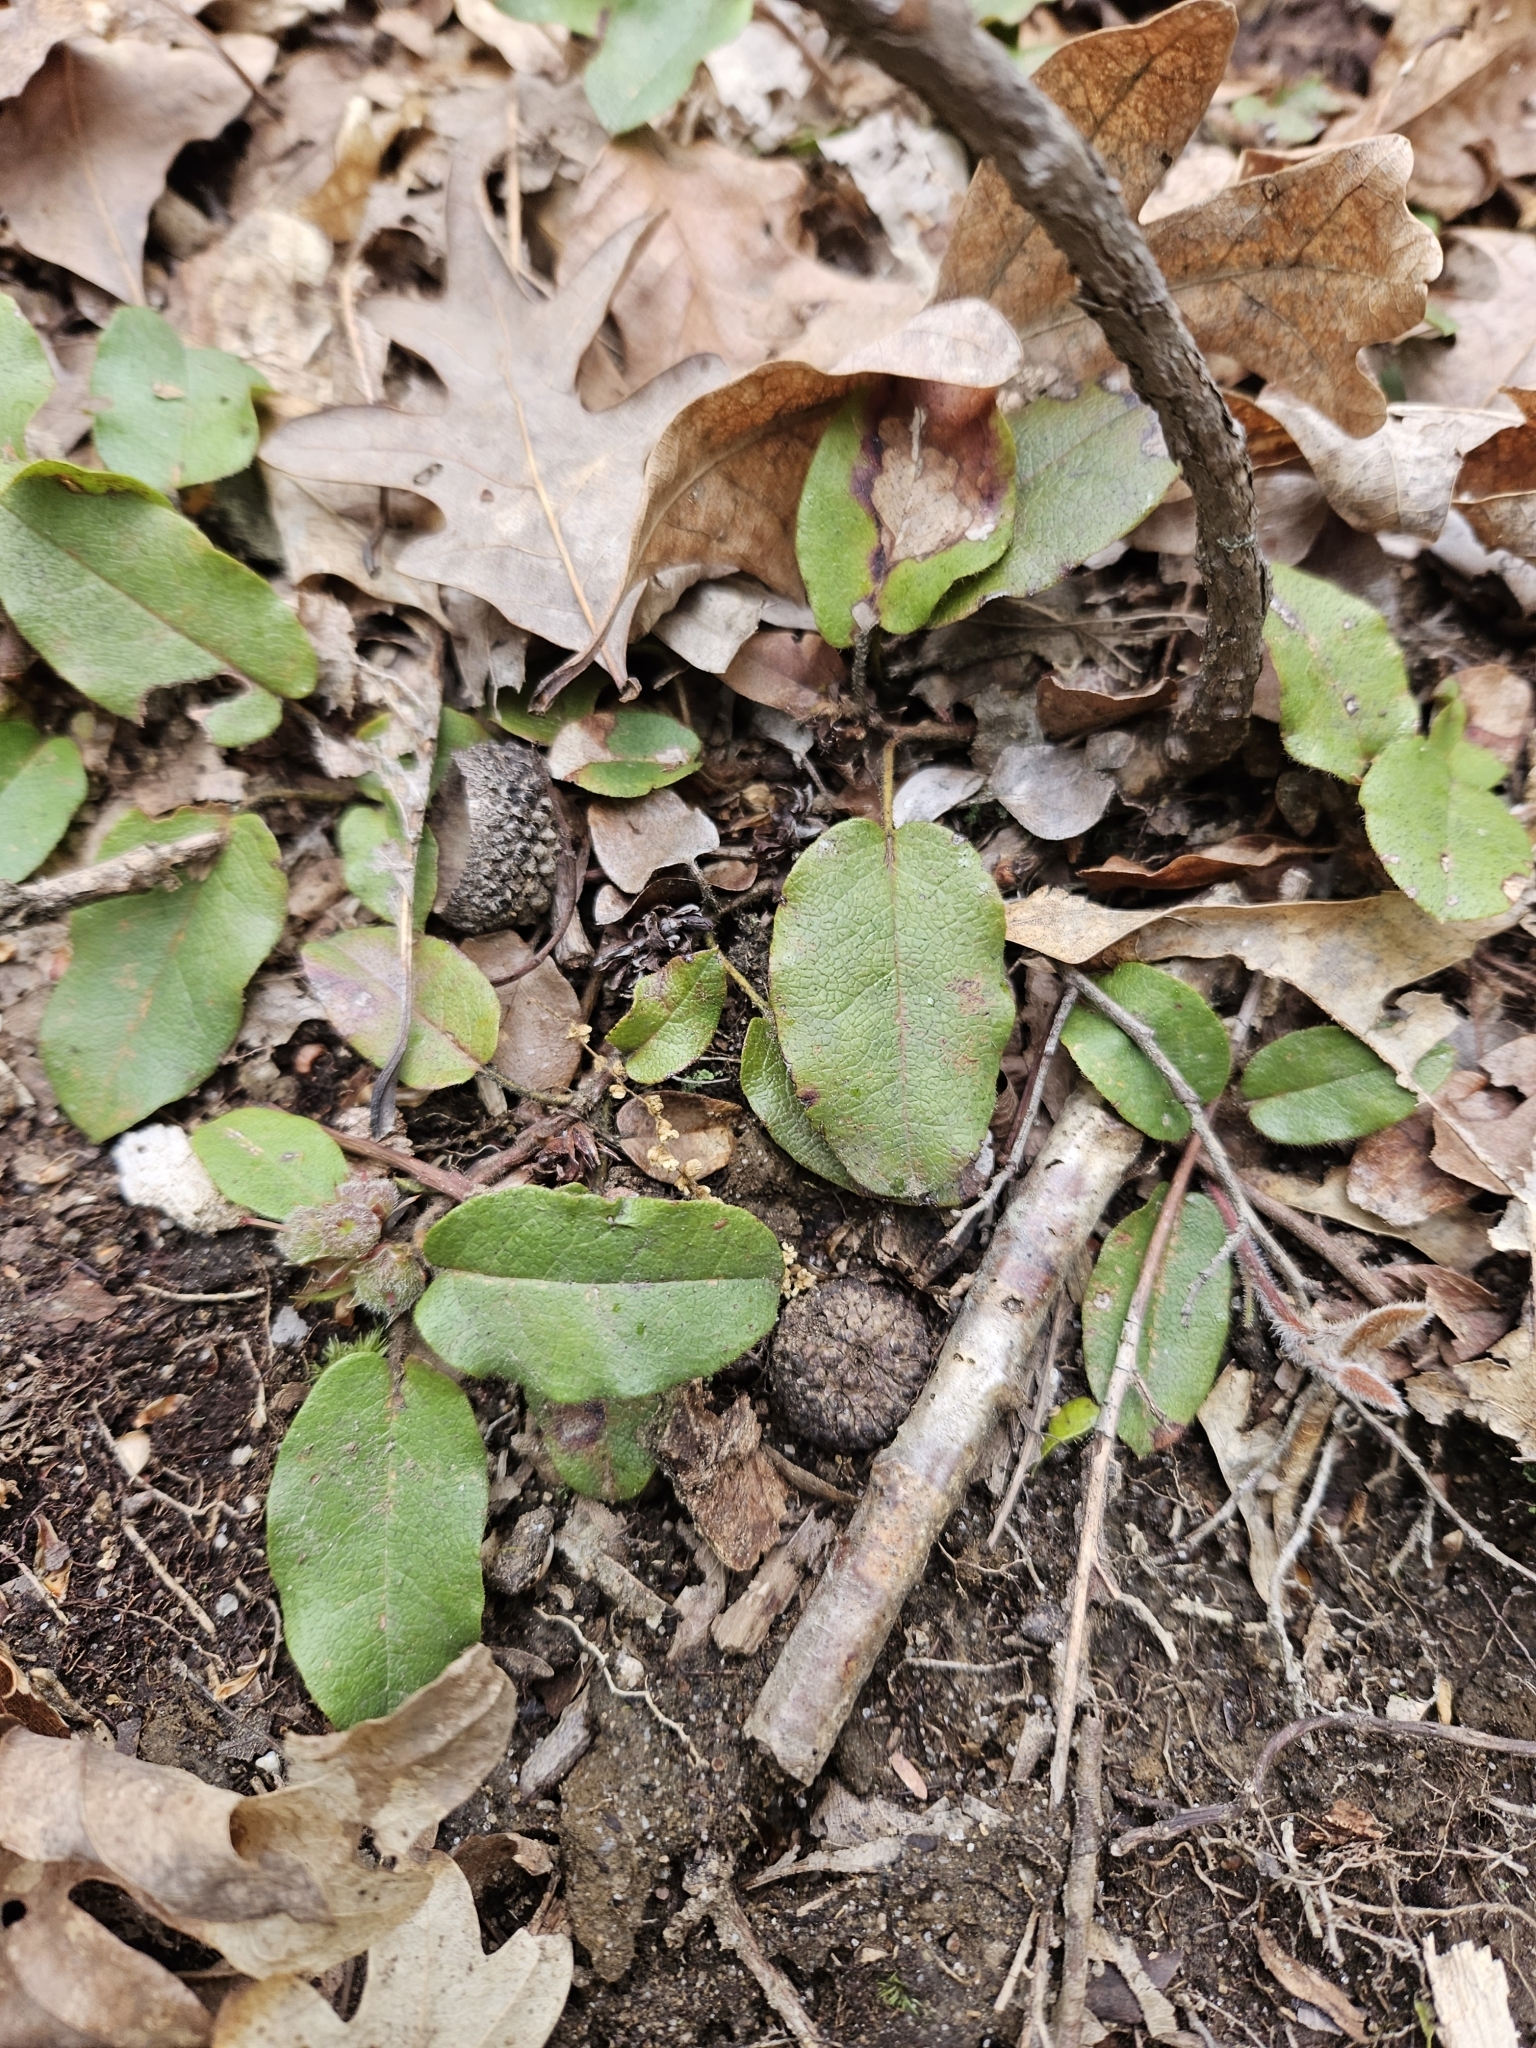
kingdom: Plantae
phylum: Tracheophyta
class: Magnoliopsida
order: Ericales
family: Ericaceae
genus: Epigaea
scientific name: Epigaea repens
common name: Gravelroot
